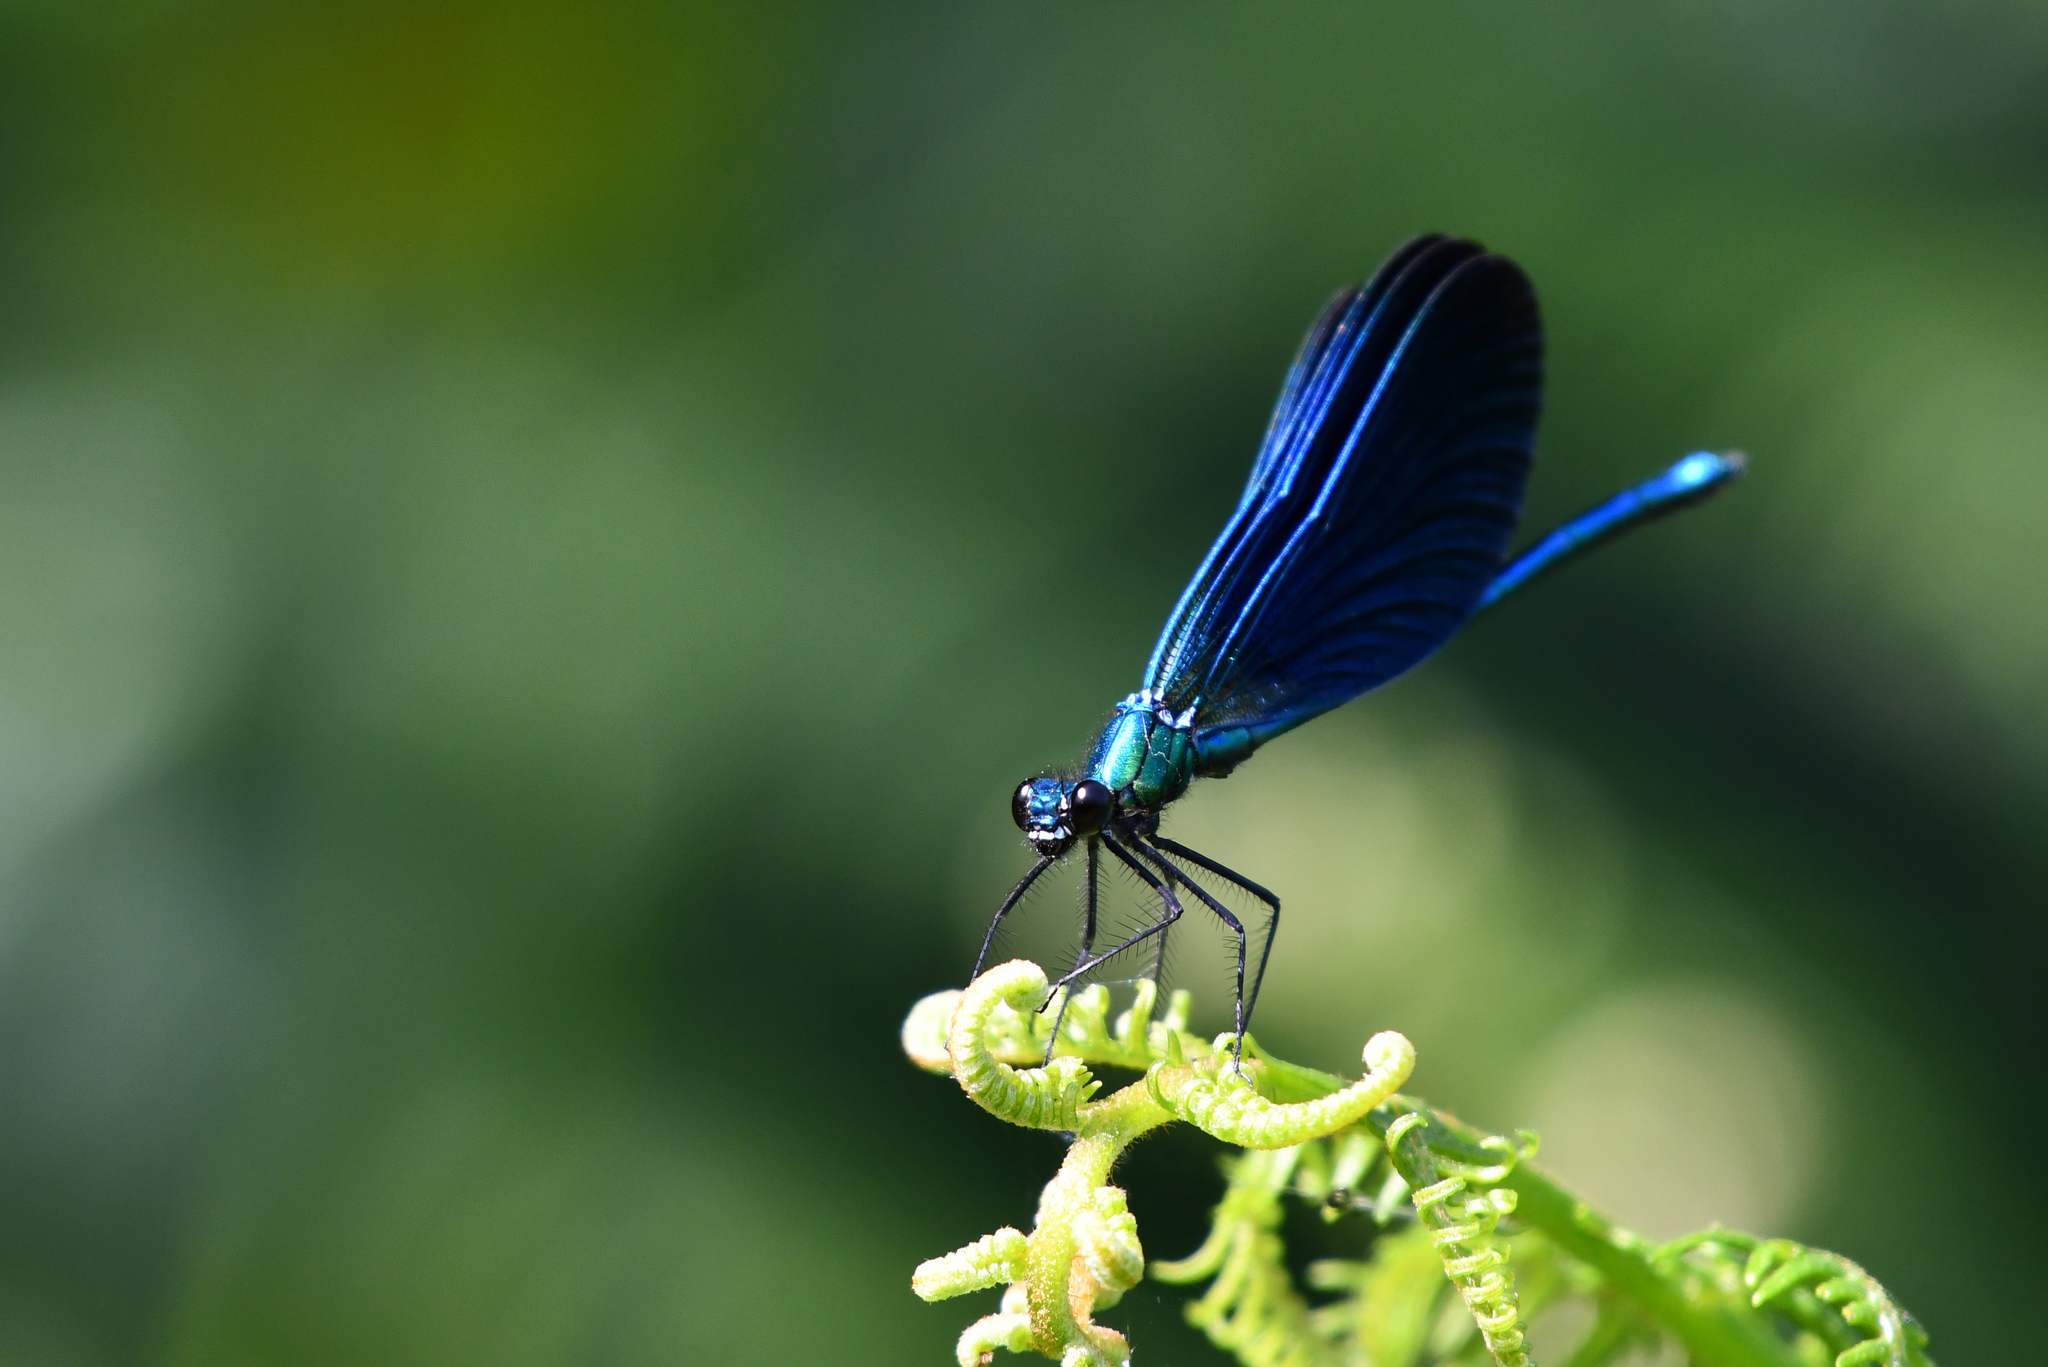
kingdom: Animalia
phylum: Arthropoda
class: Insecta
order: Odonata
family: Calopterygidae
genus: Calopteryx
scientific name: Calopteryx virgo
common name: Beautiful demoiselle
